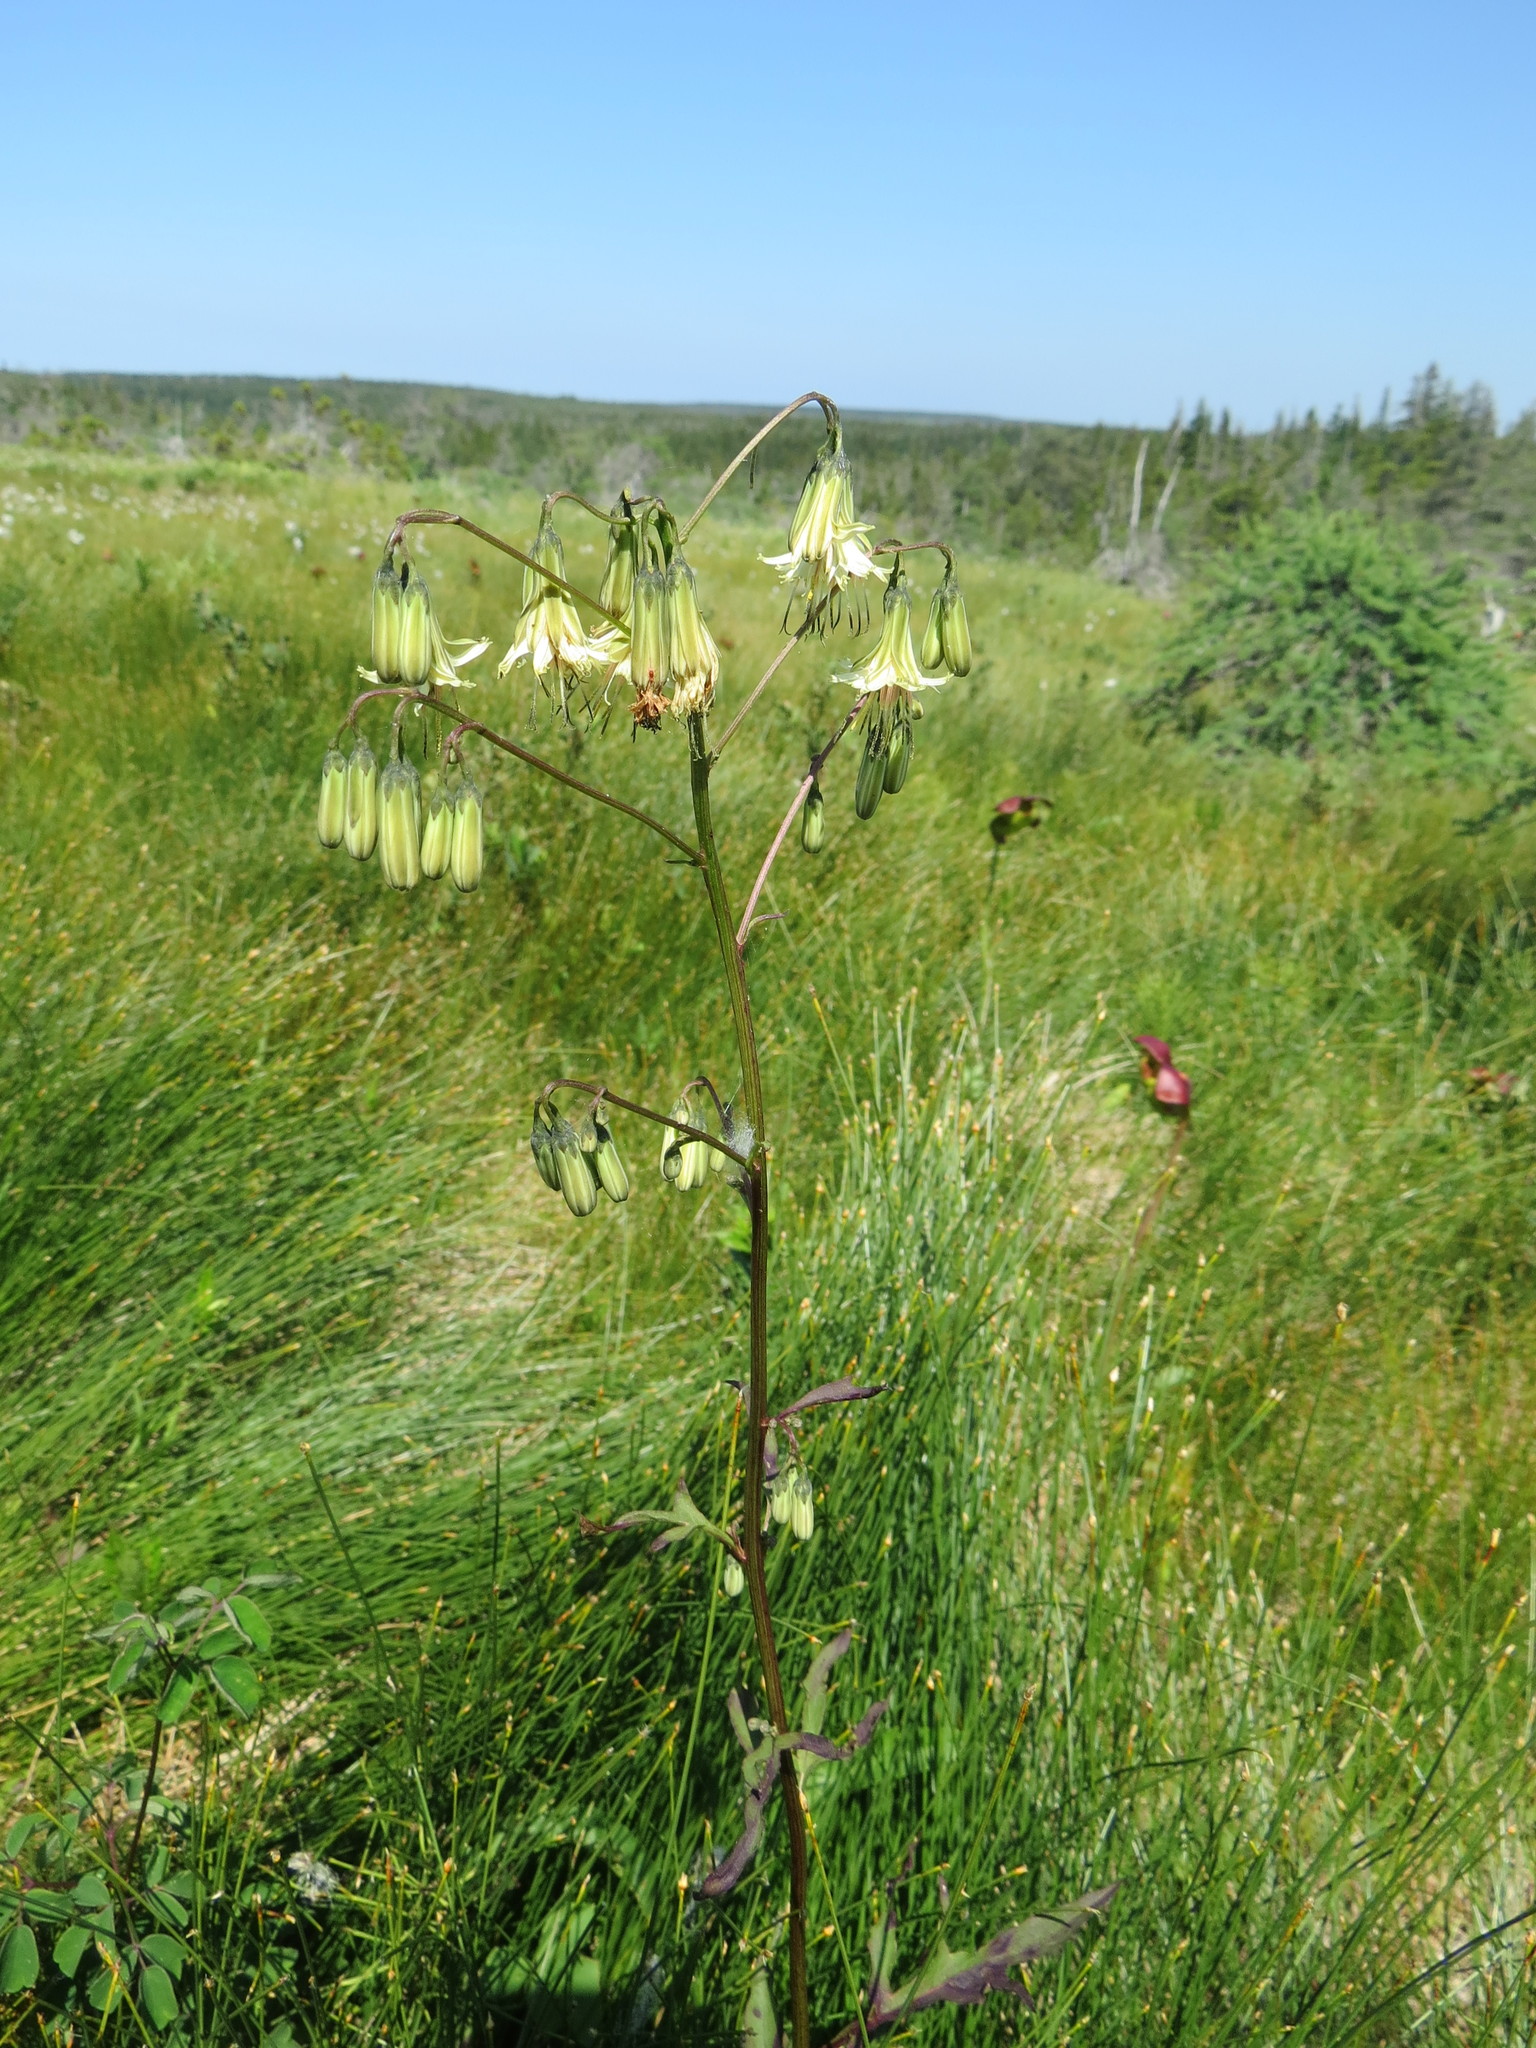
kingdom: Plantae
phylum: Tracheophyta
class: Magnoliopsida
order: Asterales
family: Asteraceae
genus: Nabalus
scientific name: Nabalus altissima
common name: Tall rattlesnakeroot
